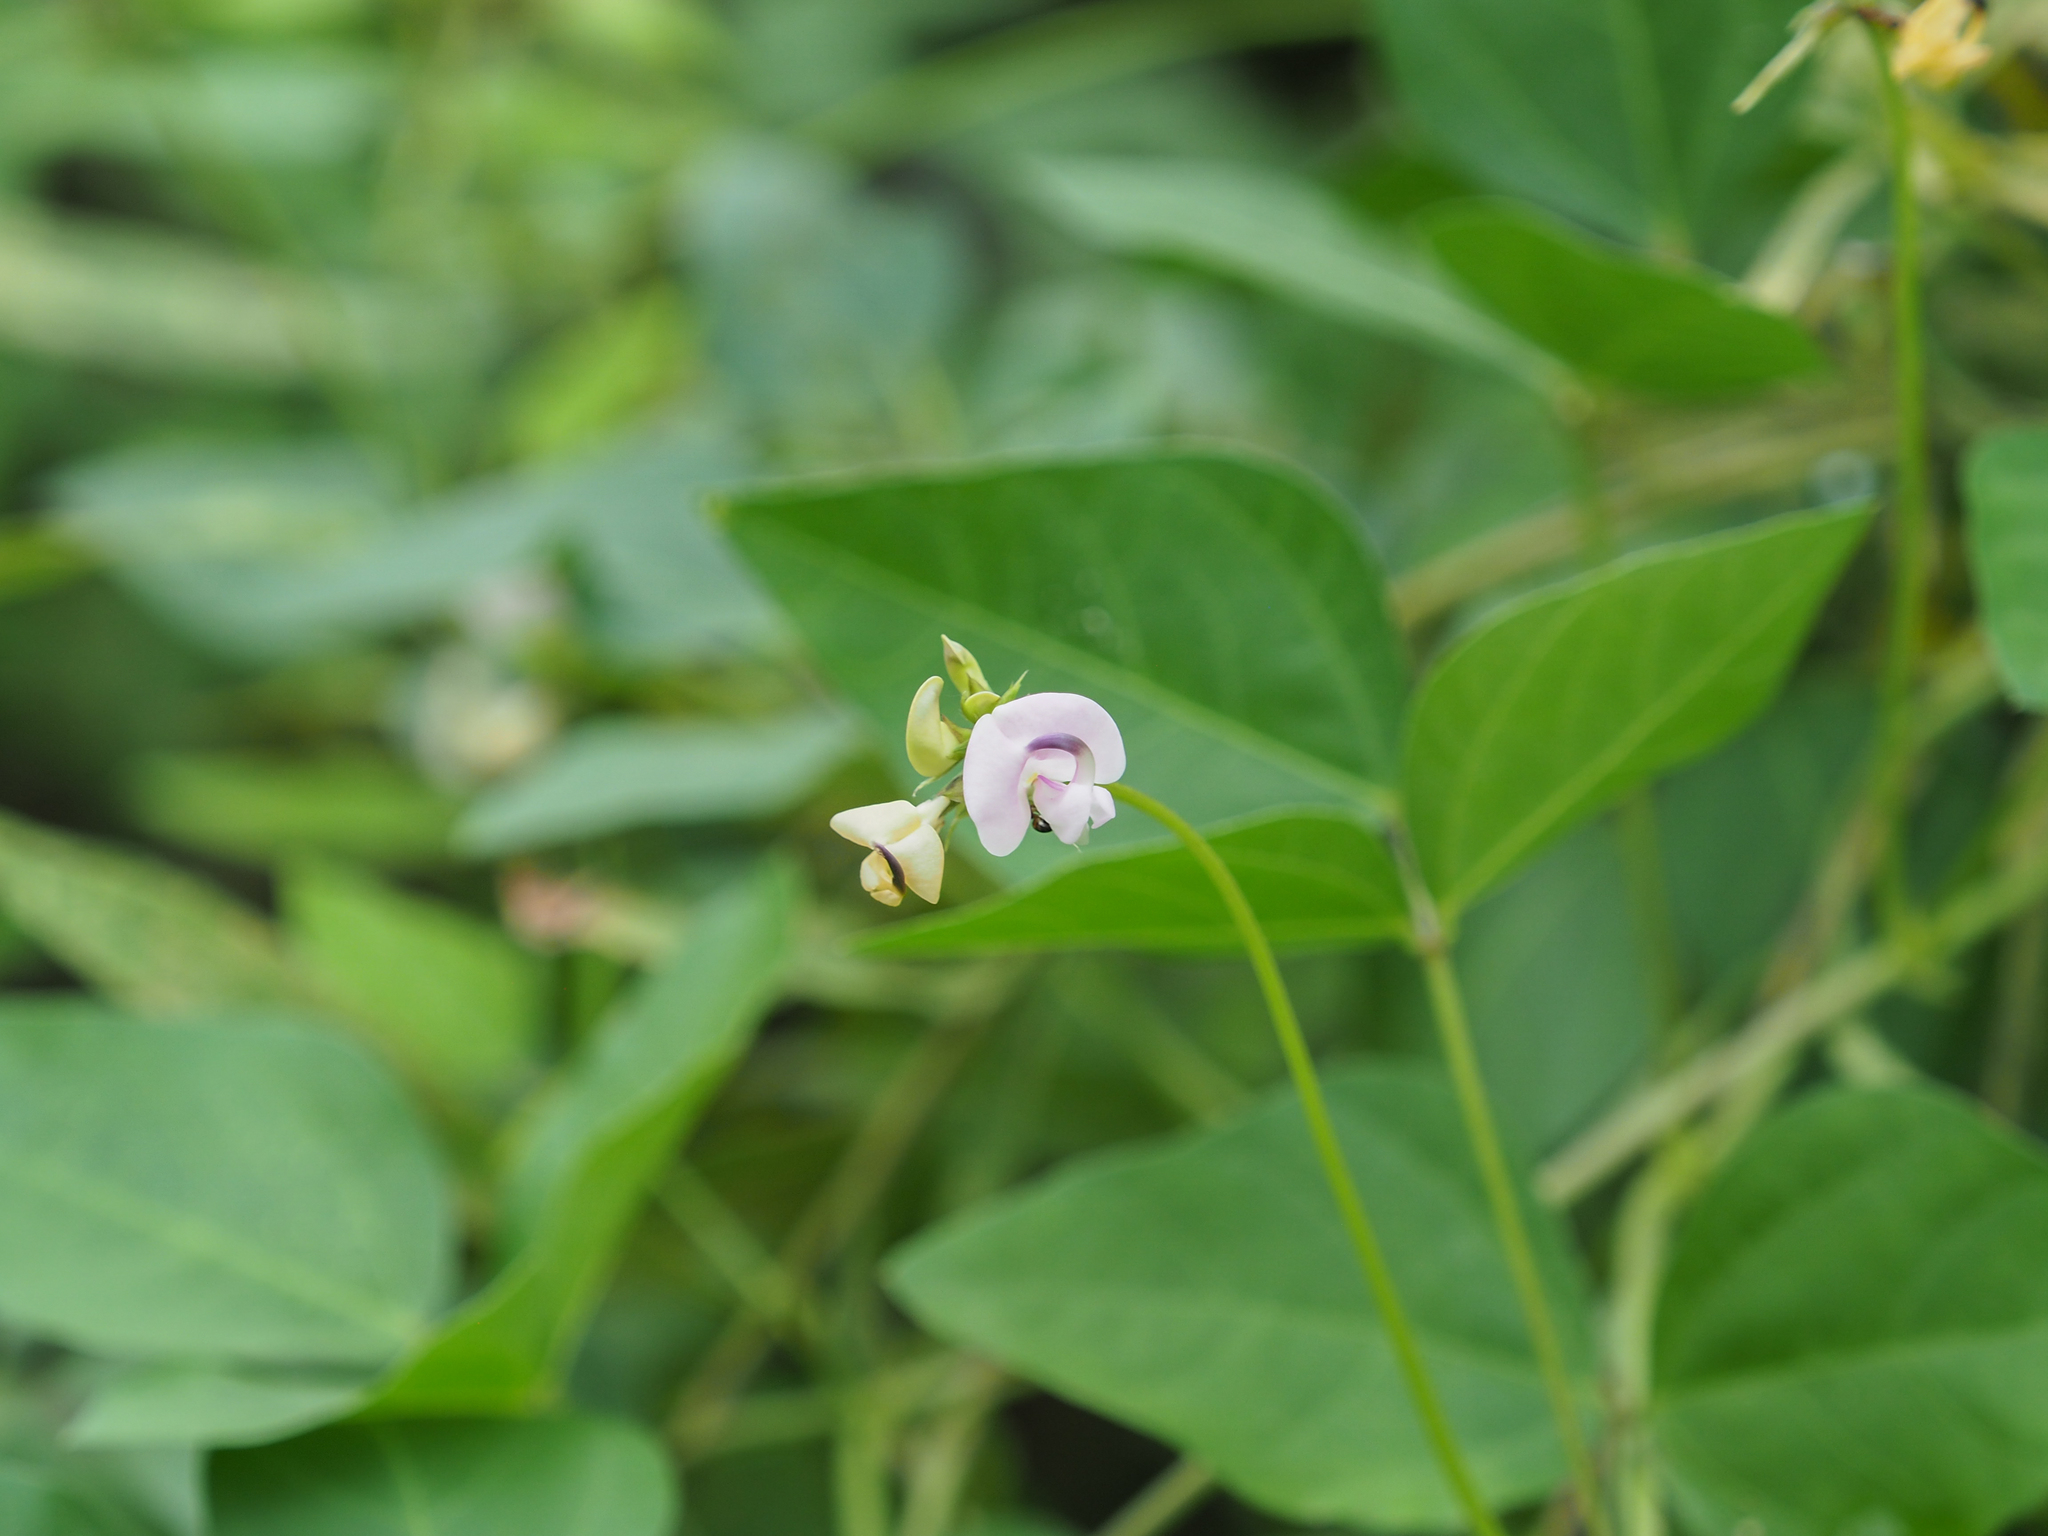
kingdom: Plantae
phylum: Tracheophyta
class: Magnoliopsida
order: Fabales
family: Fabaceae
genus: Strophostyles
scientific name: Strophostyles helvola
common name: Trailing wild bean
